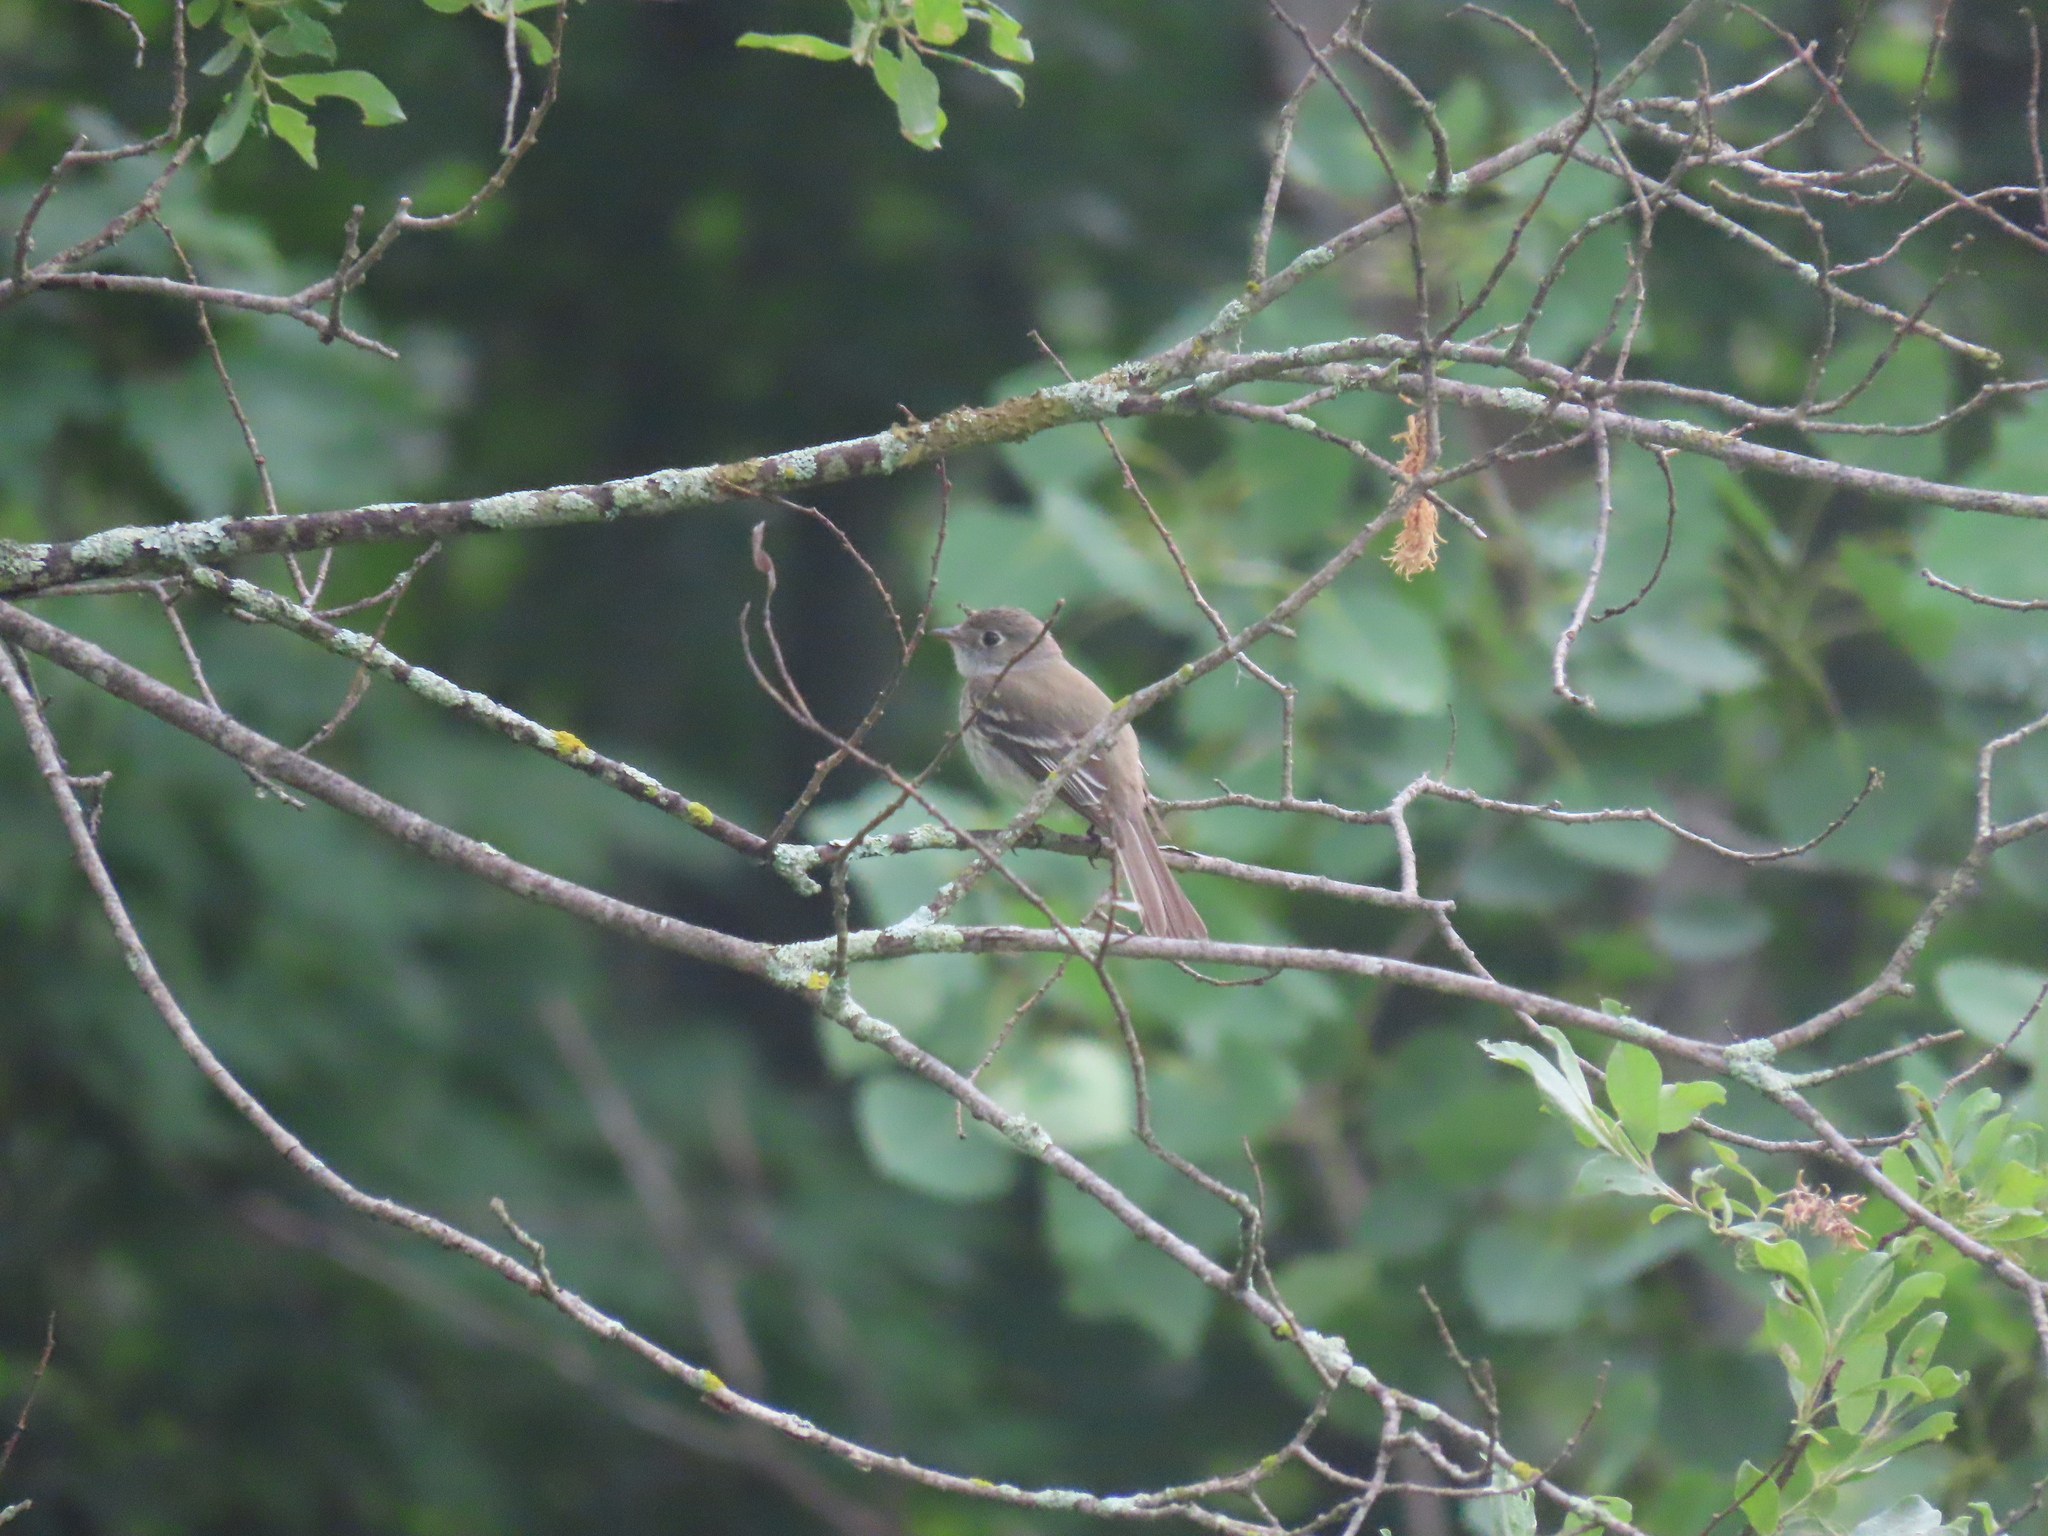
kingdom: Animalia
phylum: Chordata
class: Aves
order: Passeriformes
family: Tyrannidae
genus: Empidonax
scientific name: Empidonax minimus
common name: Least flycatcher
